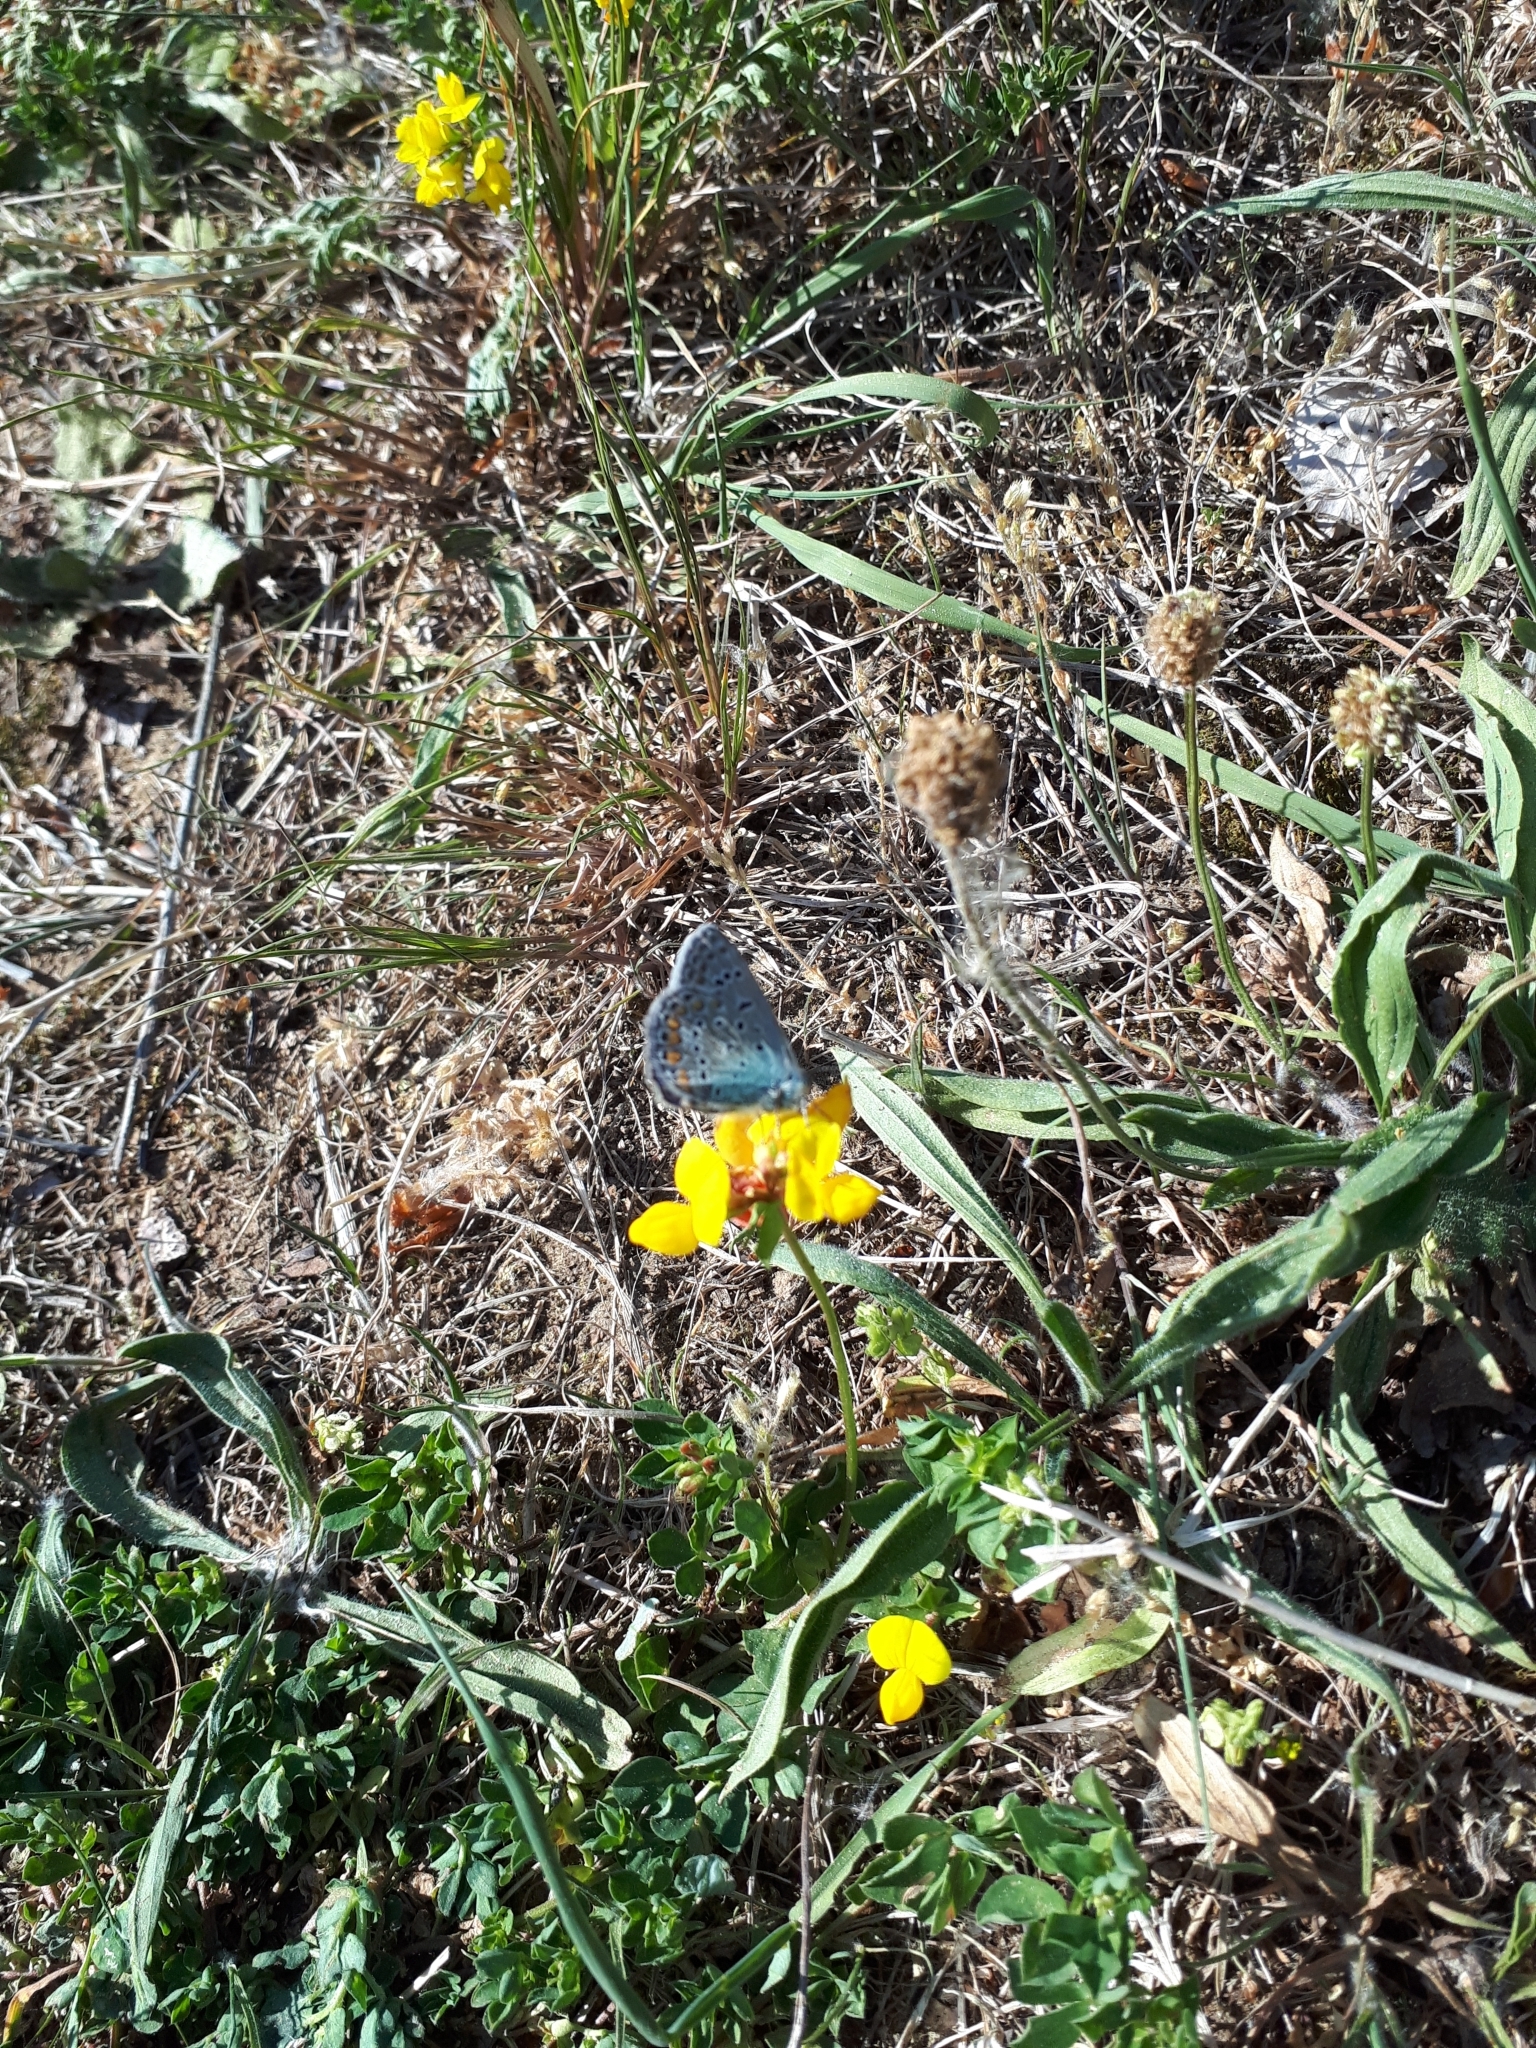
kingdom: Animalia
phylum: Arthropoda
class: Insecta
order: Lepidoptera
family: Lycaenidae
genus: Polyommatus
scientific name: Polyommatus icarus
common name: Common blue
